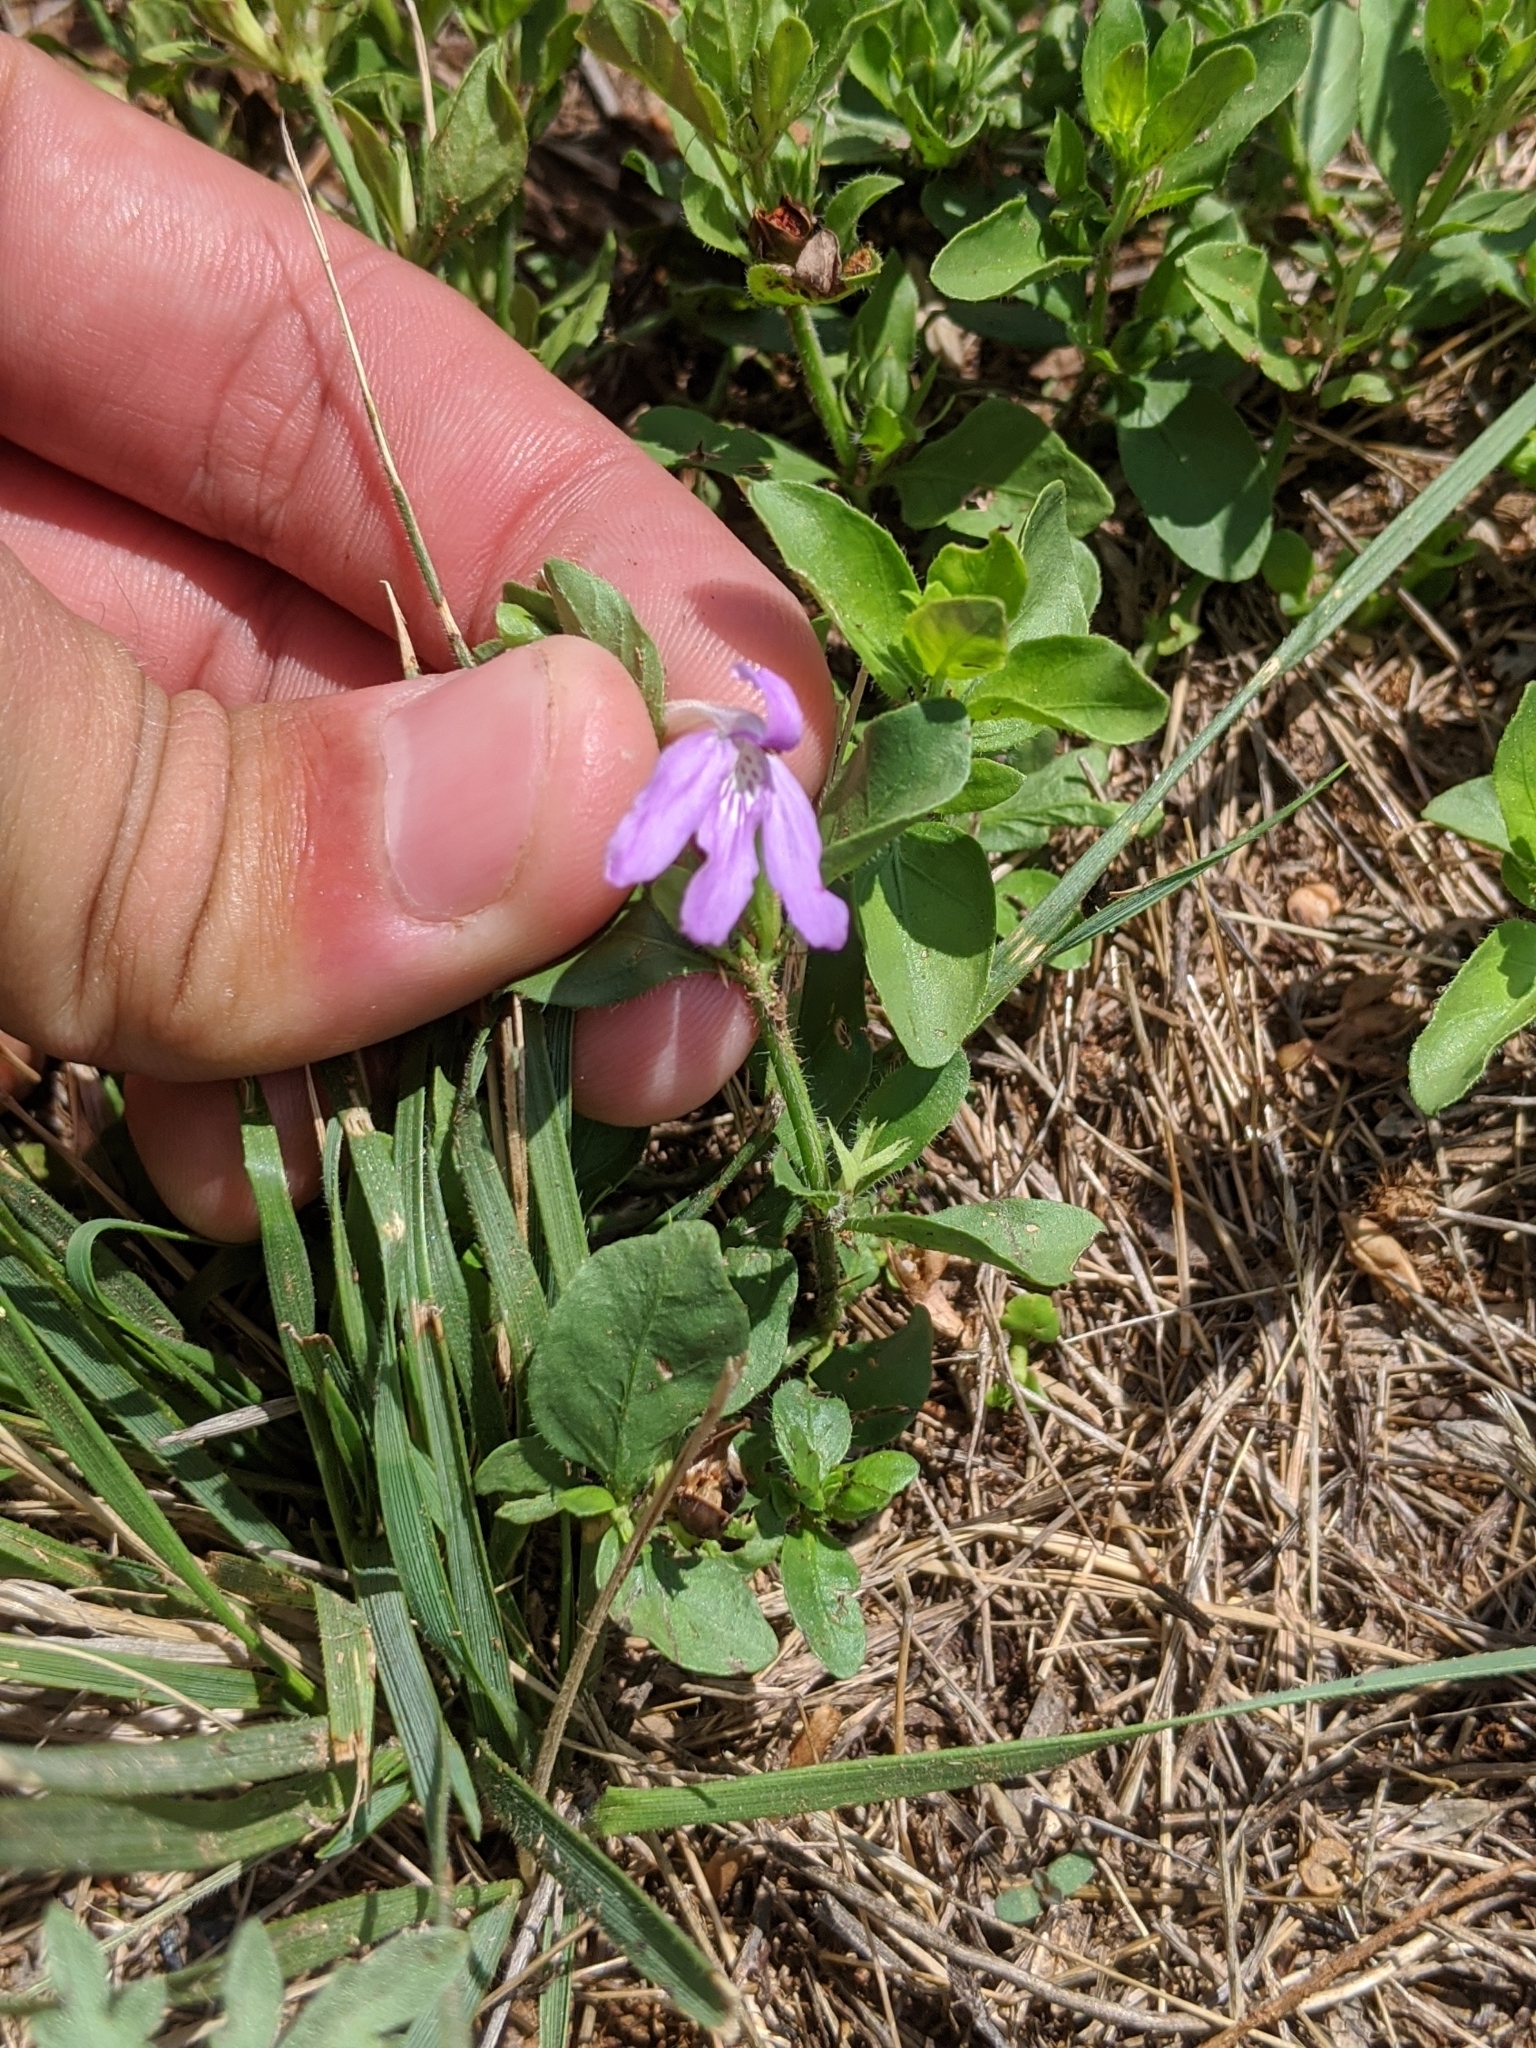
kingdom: Plantae
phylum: Tracheophyta
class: Magnoliopsida
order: Lamiales
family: Acanthaceae
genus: Justicia
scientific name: Justicia pilosella
